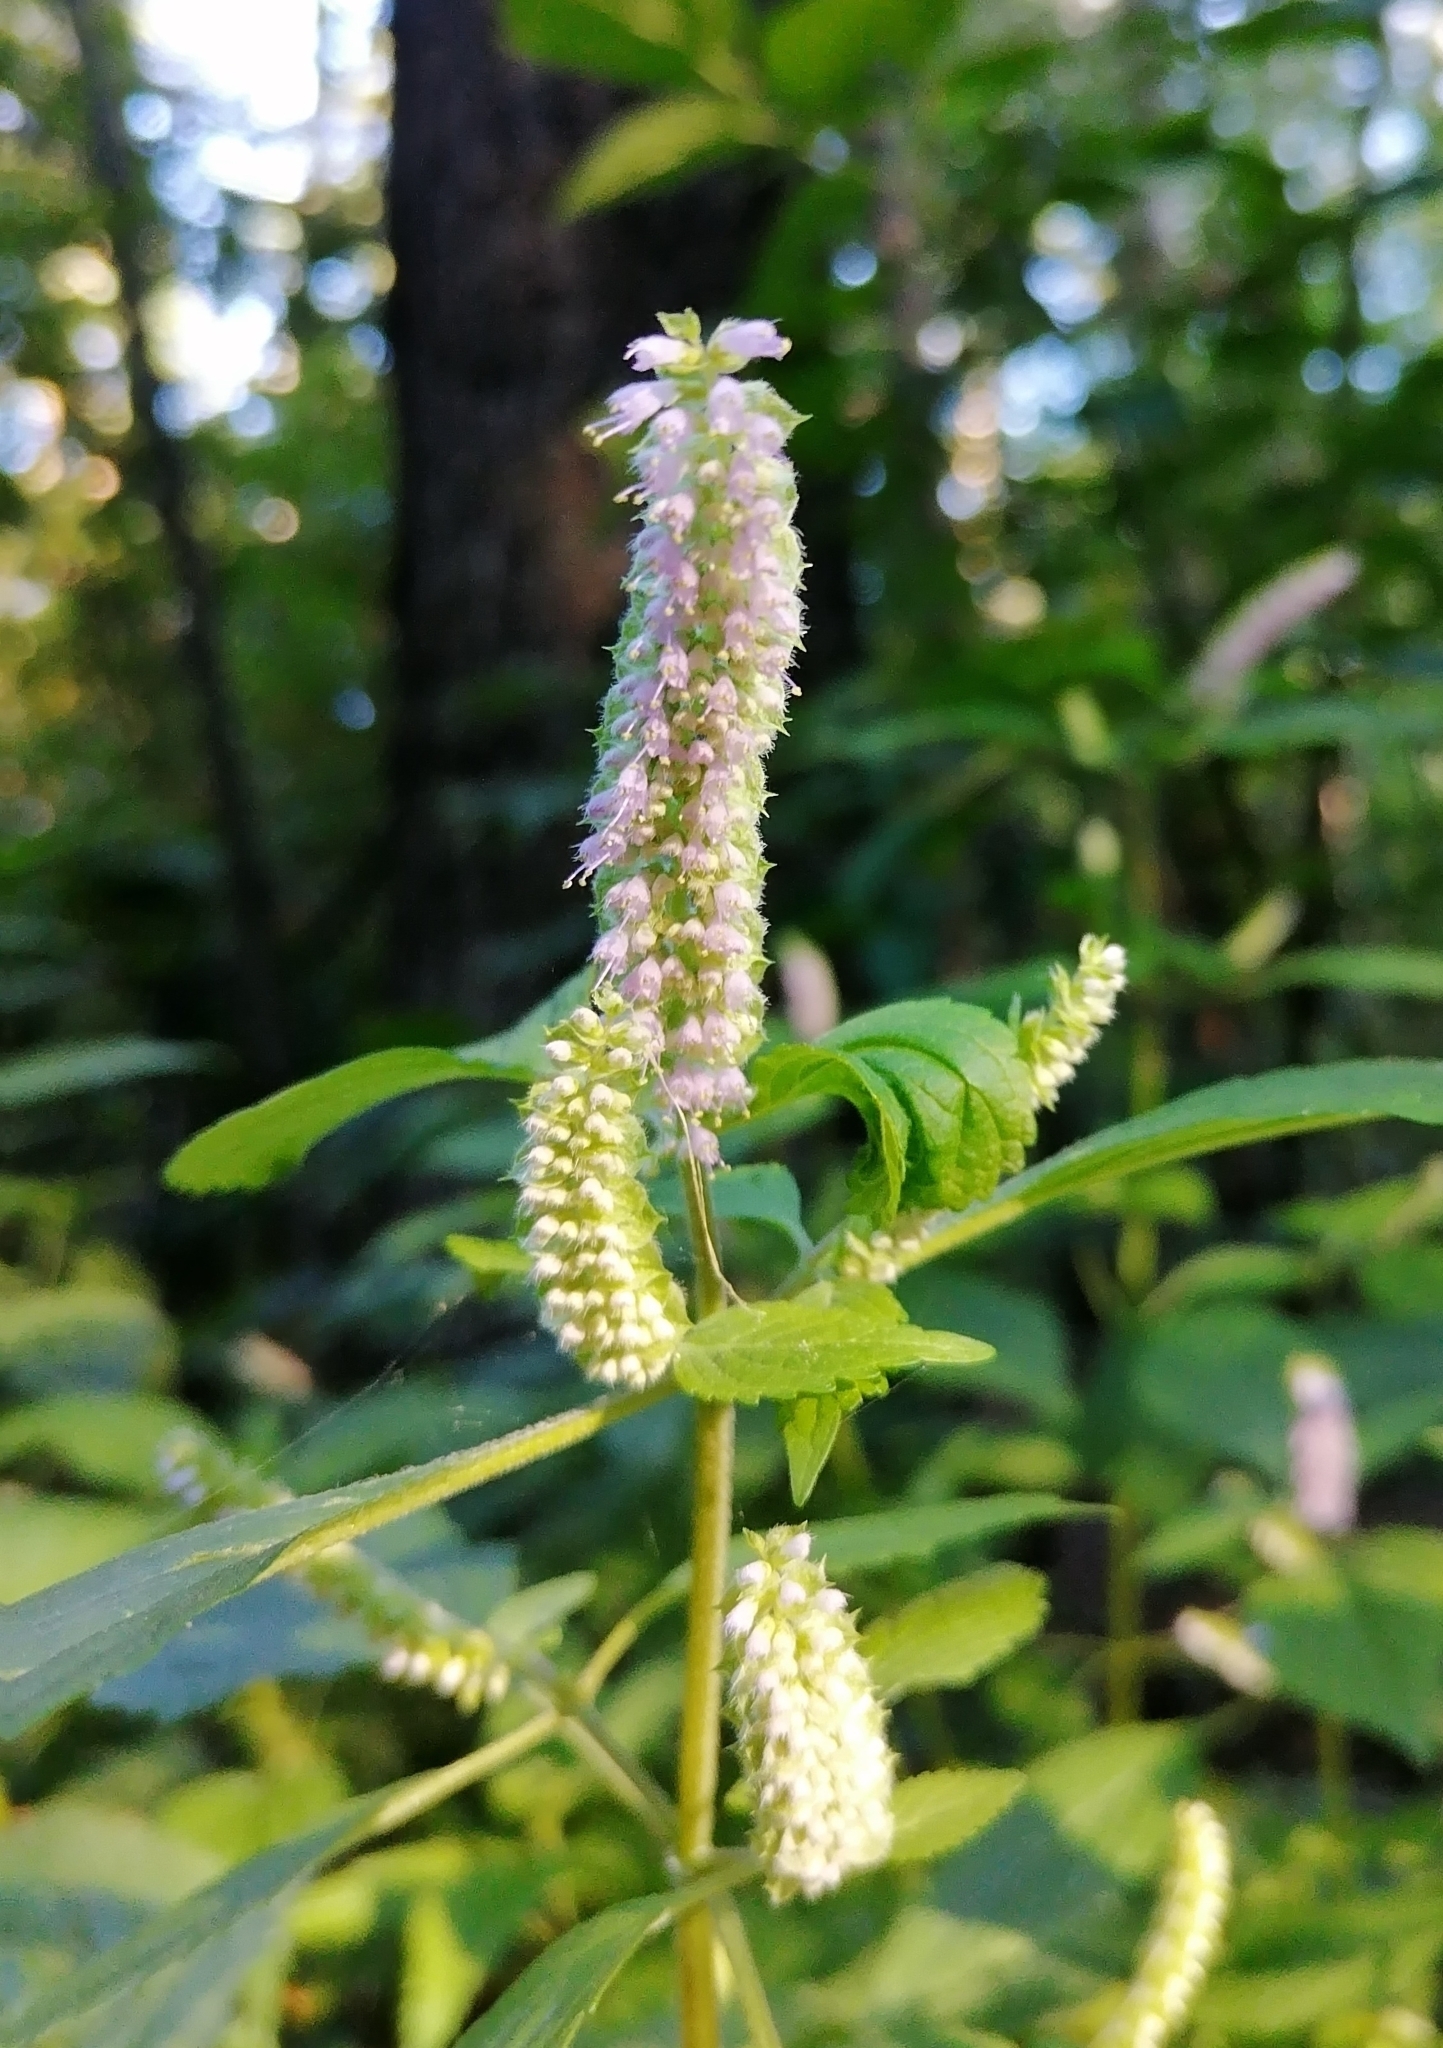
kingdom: Plantae
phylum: Tracheophyta
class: Magnoliopsida
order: Lamiales
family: Lamiaceae
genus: Elsholtzia
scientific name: Elsholtzia ciliata
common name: Ciliate elsholtzia
